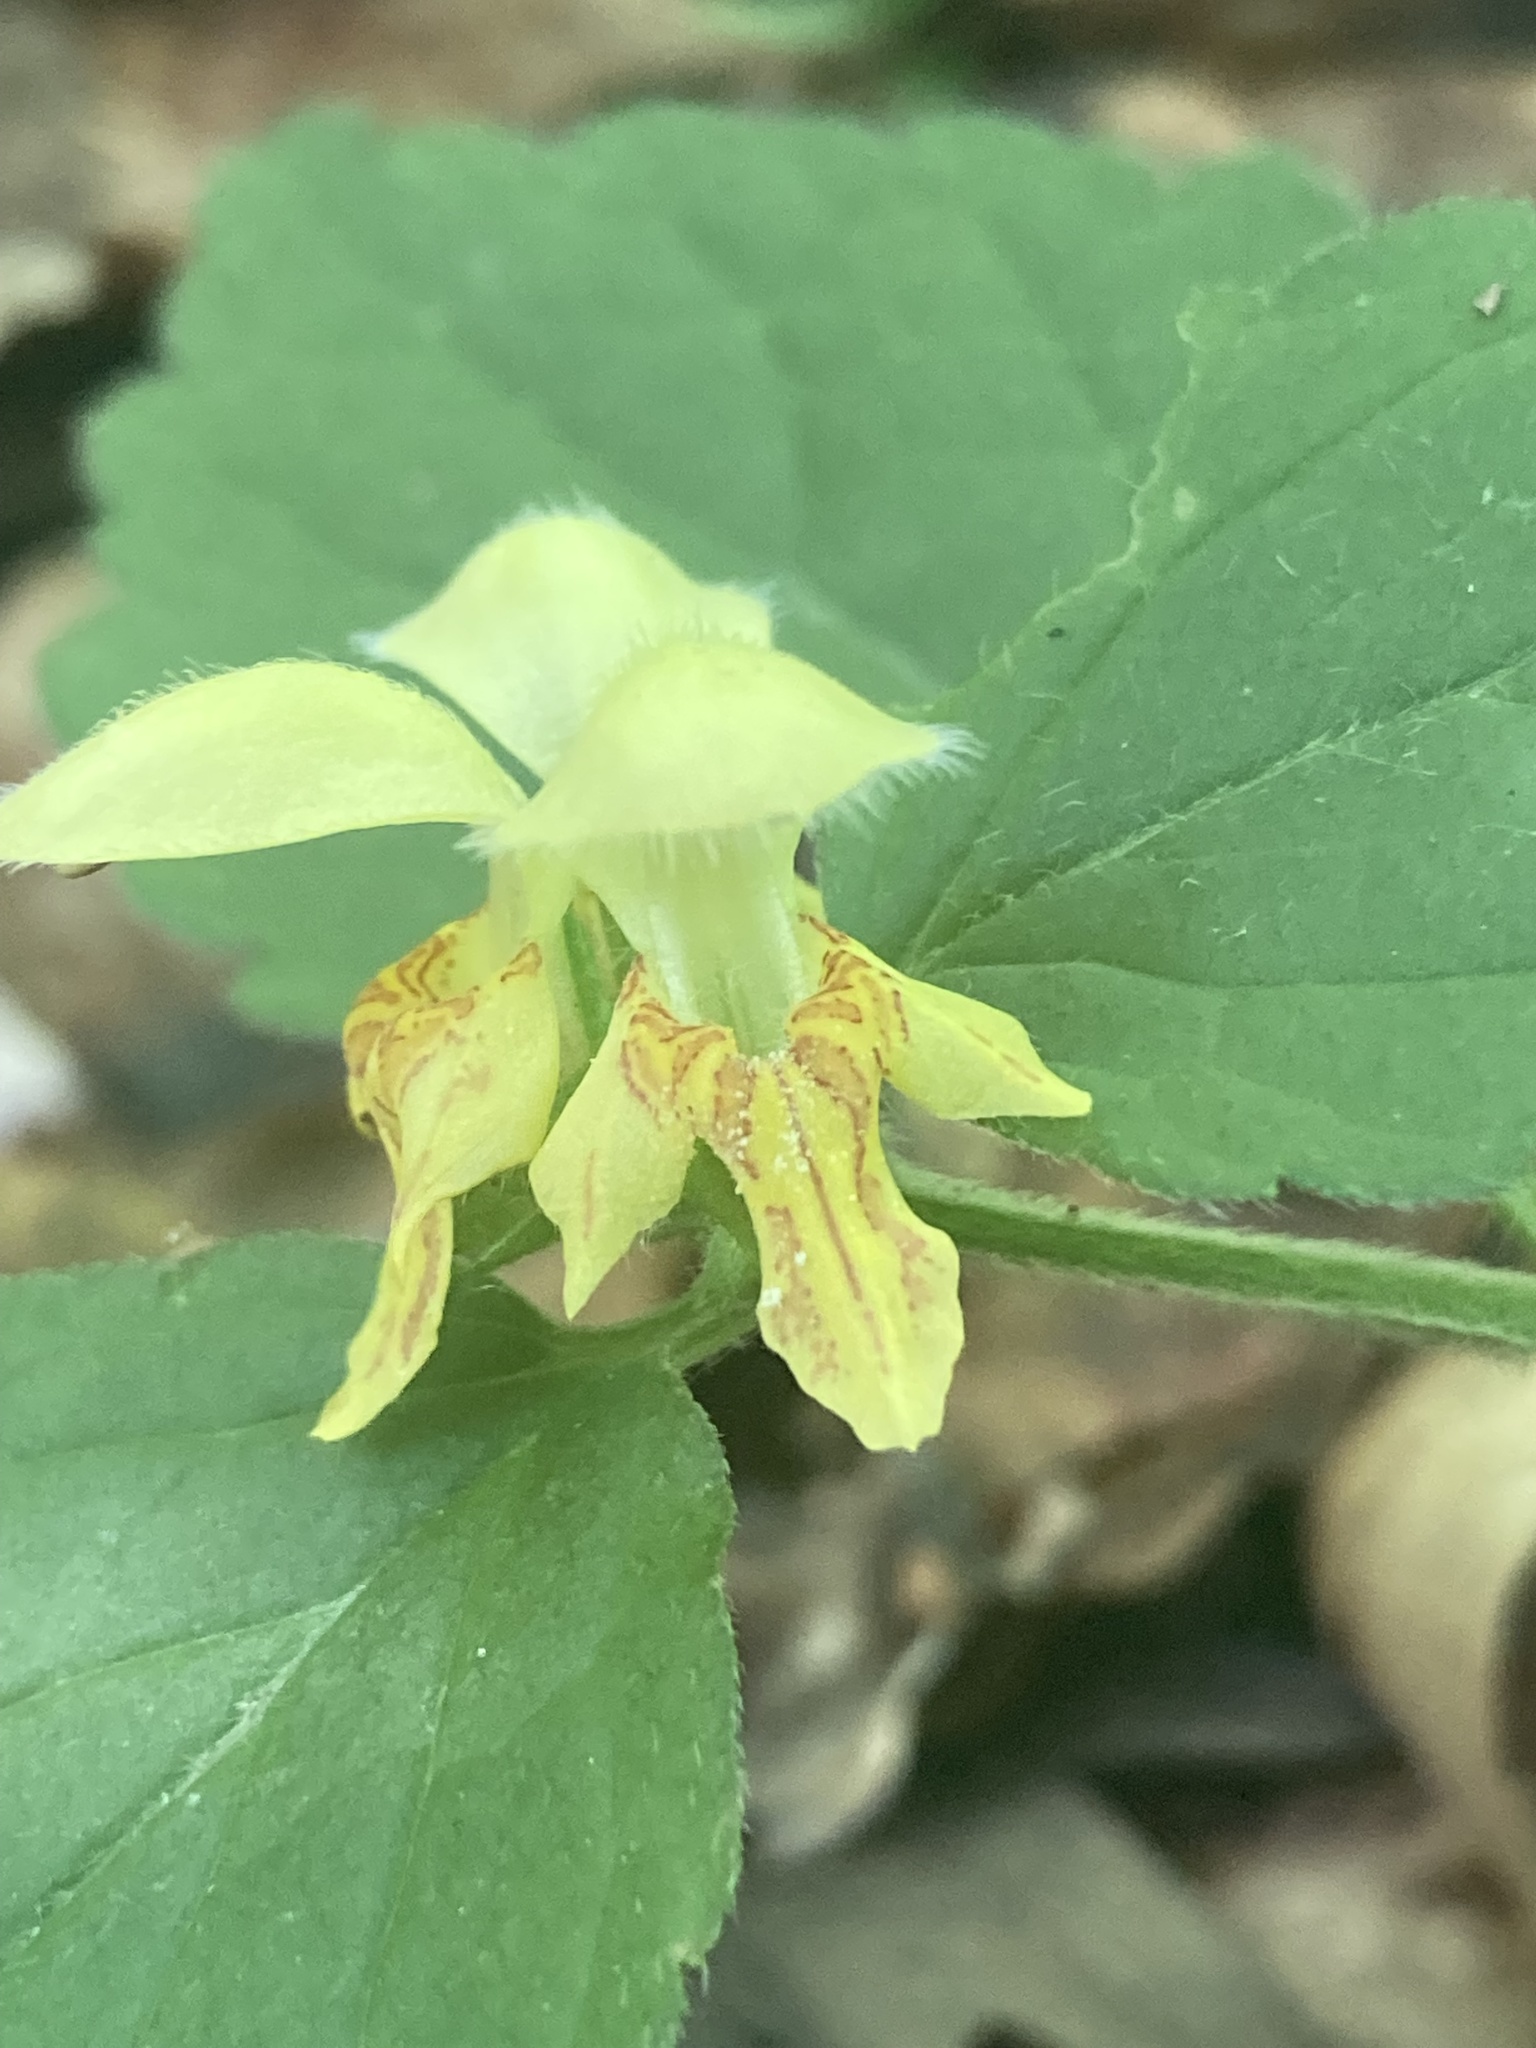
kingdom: Plantae
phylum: Tracheophyta
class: Magnoliopsida
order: Lamiales
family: Lamiaceae
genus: Lamium
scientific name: Lamium galeobdolon
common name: Yellow archangel
